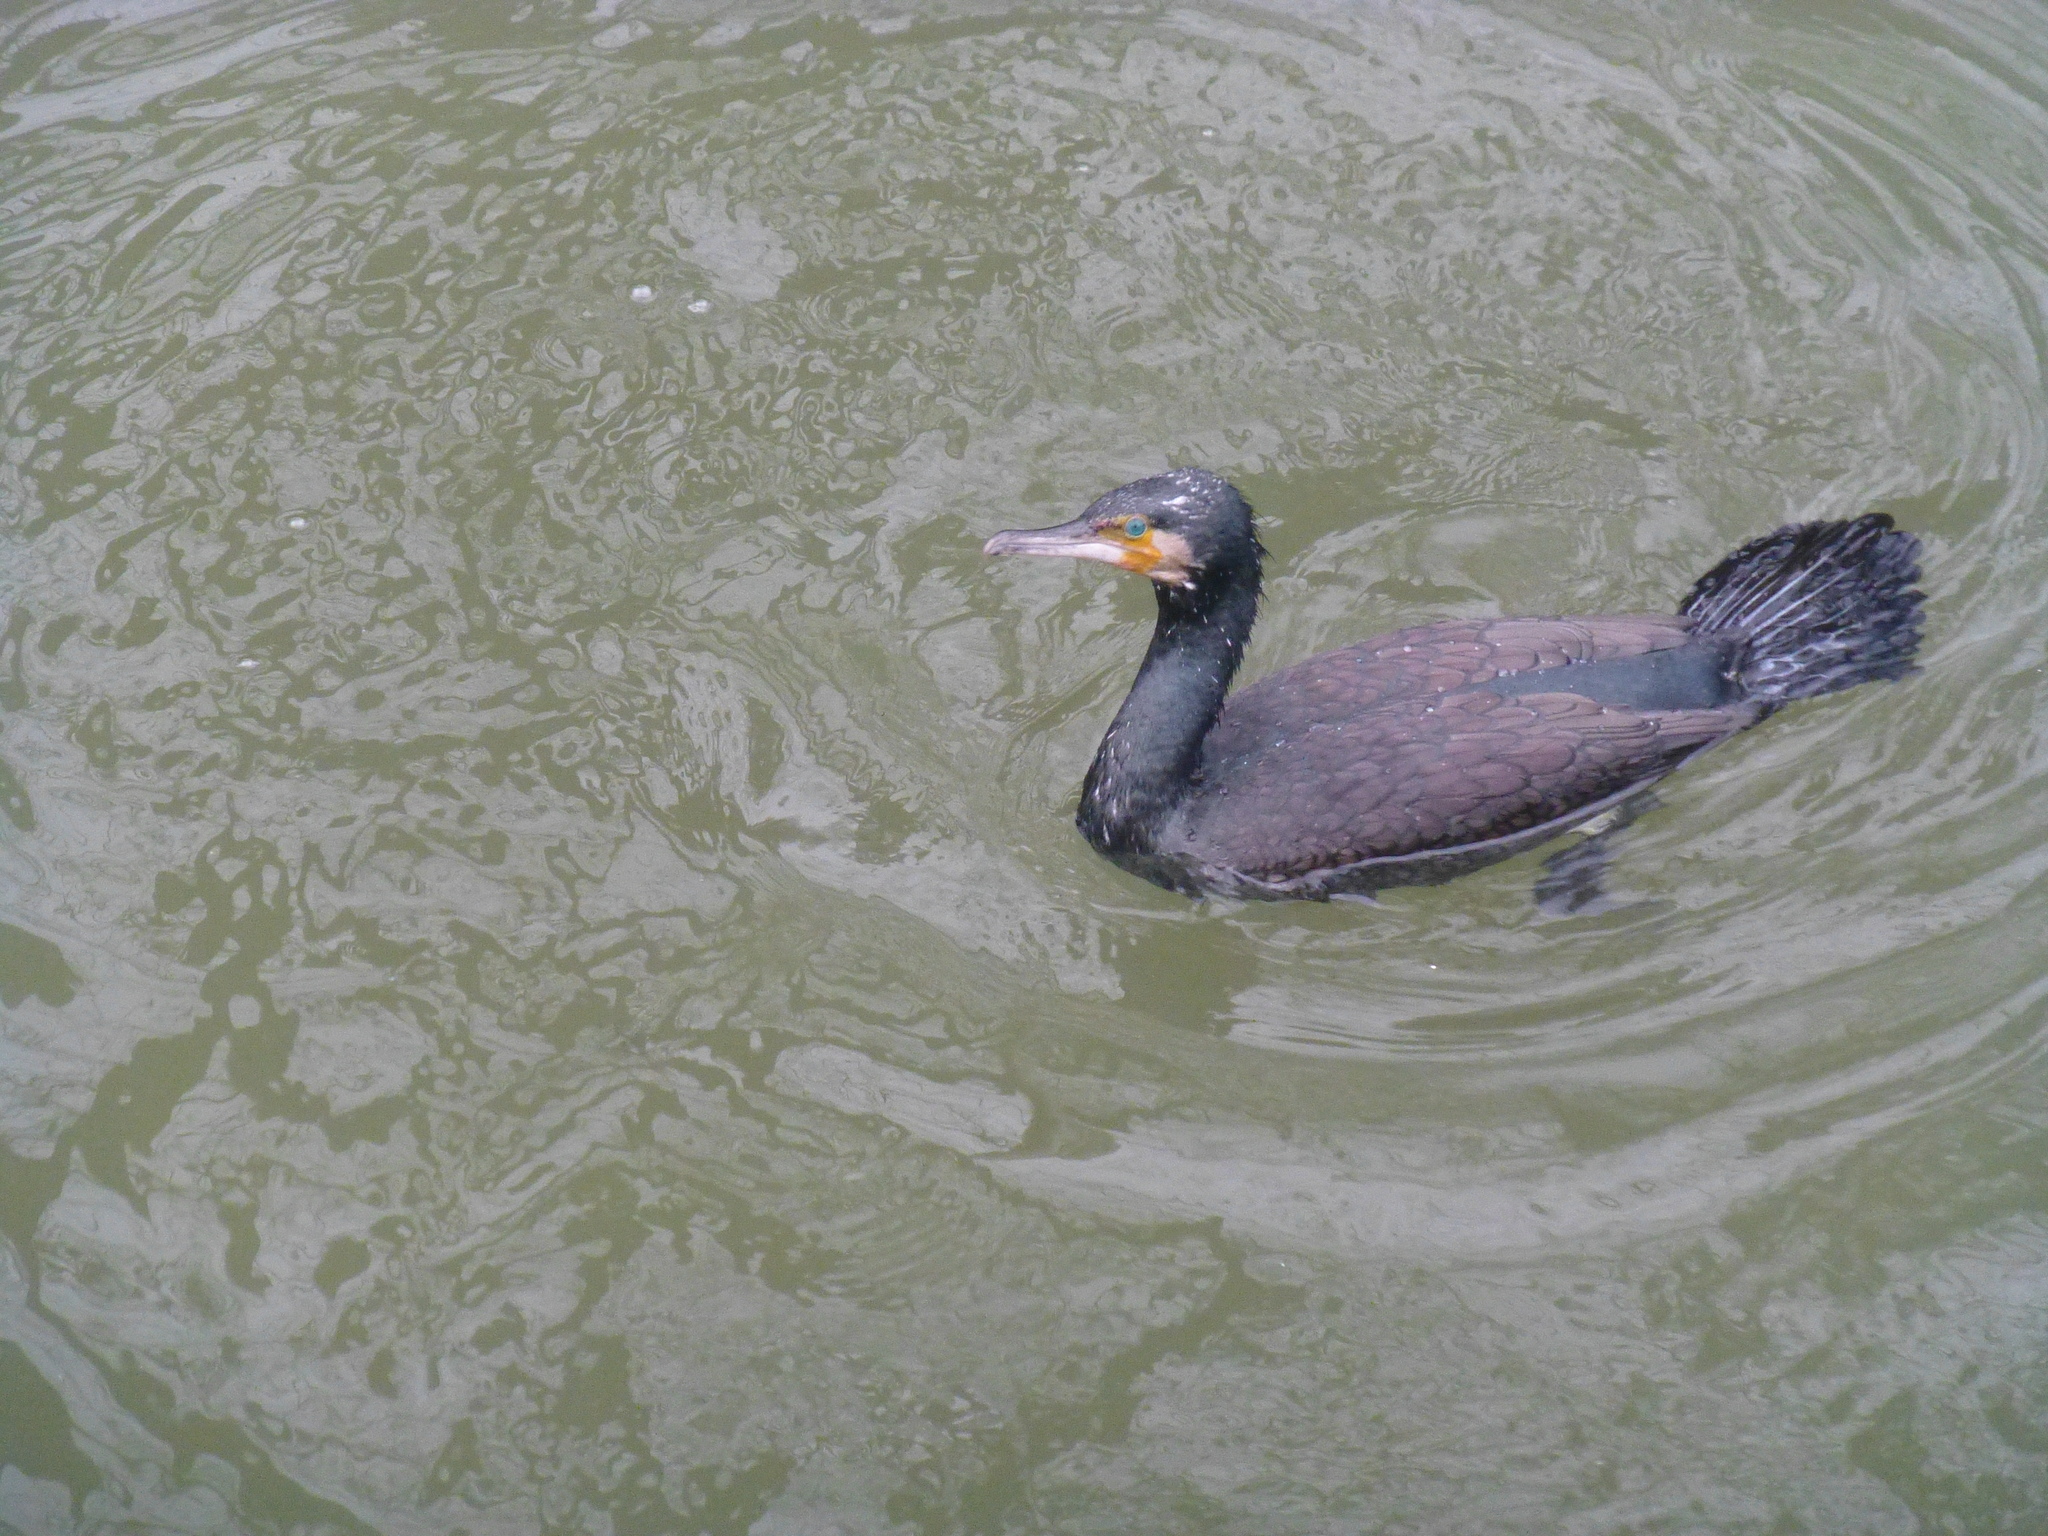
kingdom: Animalia
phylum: Chordata
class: Aves
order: Suliformes
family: Phalacrocoracidae
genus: Phalacrocorax
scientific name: Phalacrocorax carbo
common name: Great cormorant
